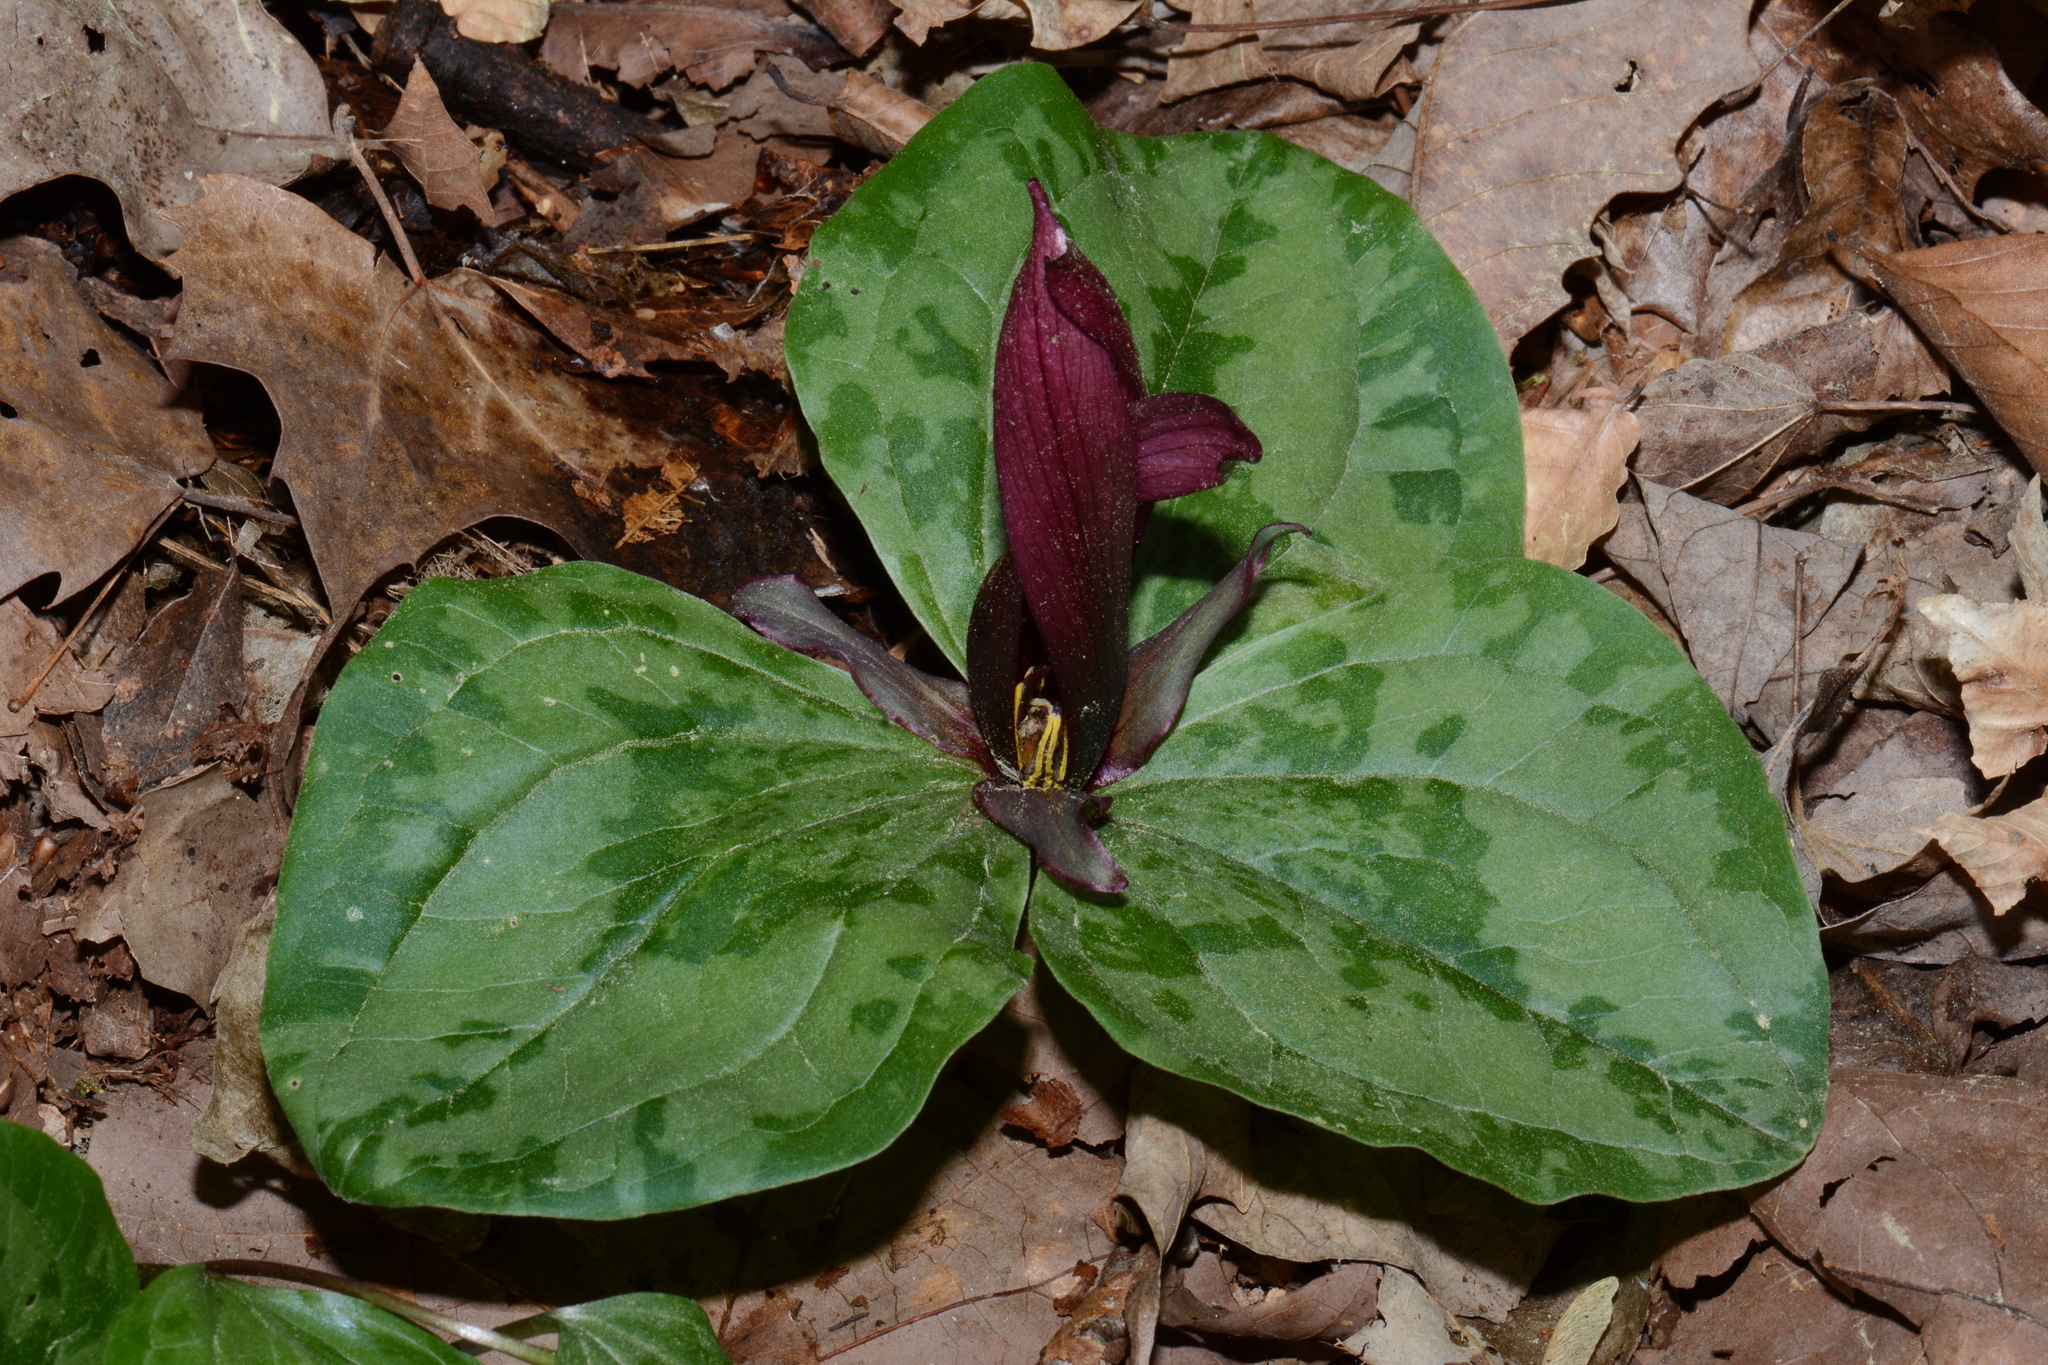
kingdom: Plantae
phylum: Tracheophyta
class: Liliopsida
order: Liliales
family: Melanthiaceae
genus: Trillium
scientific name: Trillium decumbens
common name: Decumbent trillium
